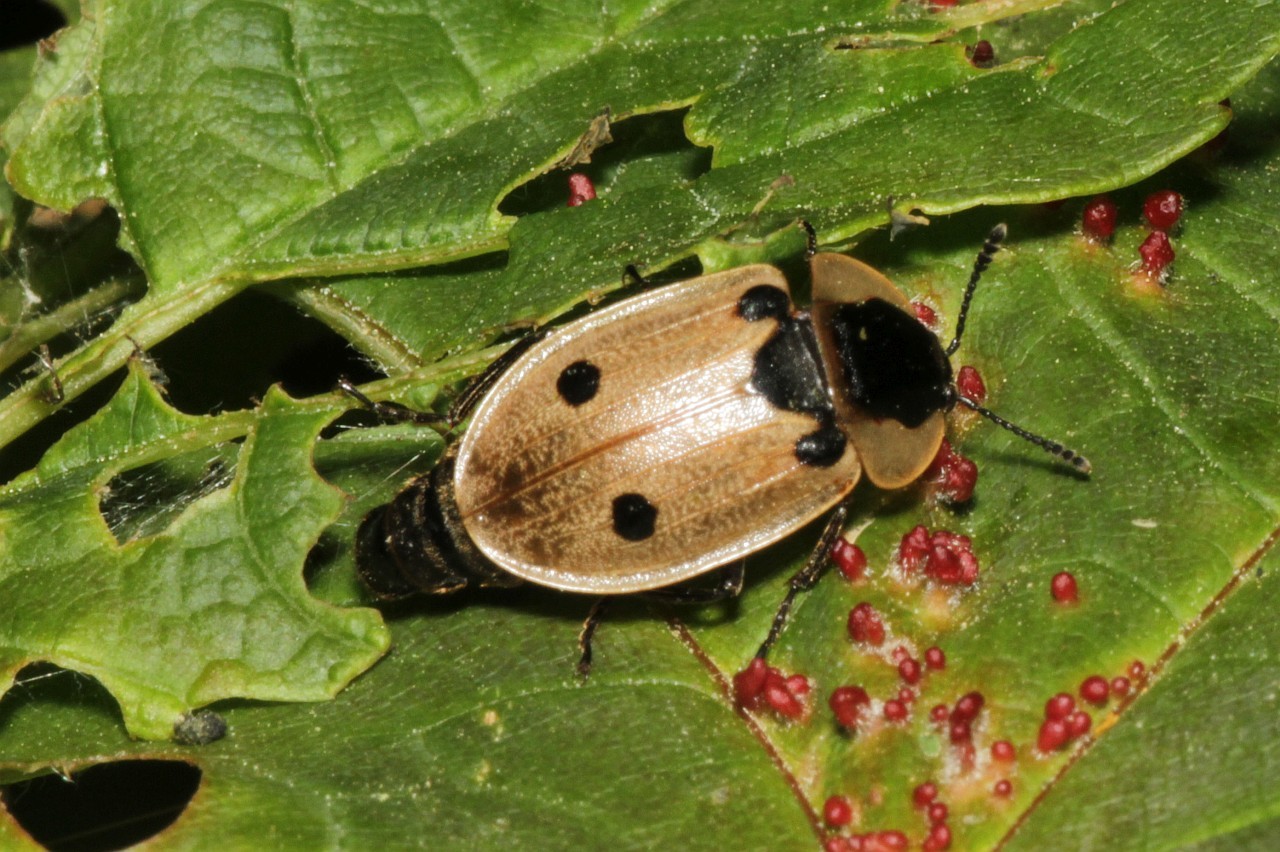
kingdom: Animalia
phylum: Arthropoda
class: Insecta
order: Coleoptera
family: Staphylinidae
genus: Dendroxena
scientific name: Dendroxena quadrimaculata
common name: Carrion beetle
